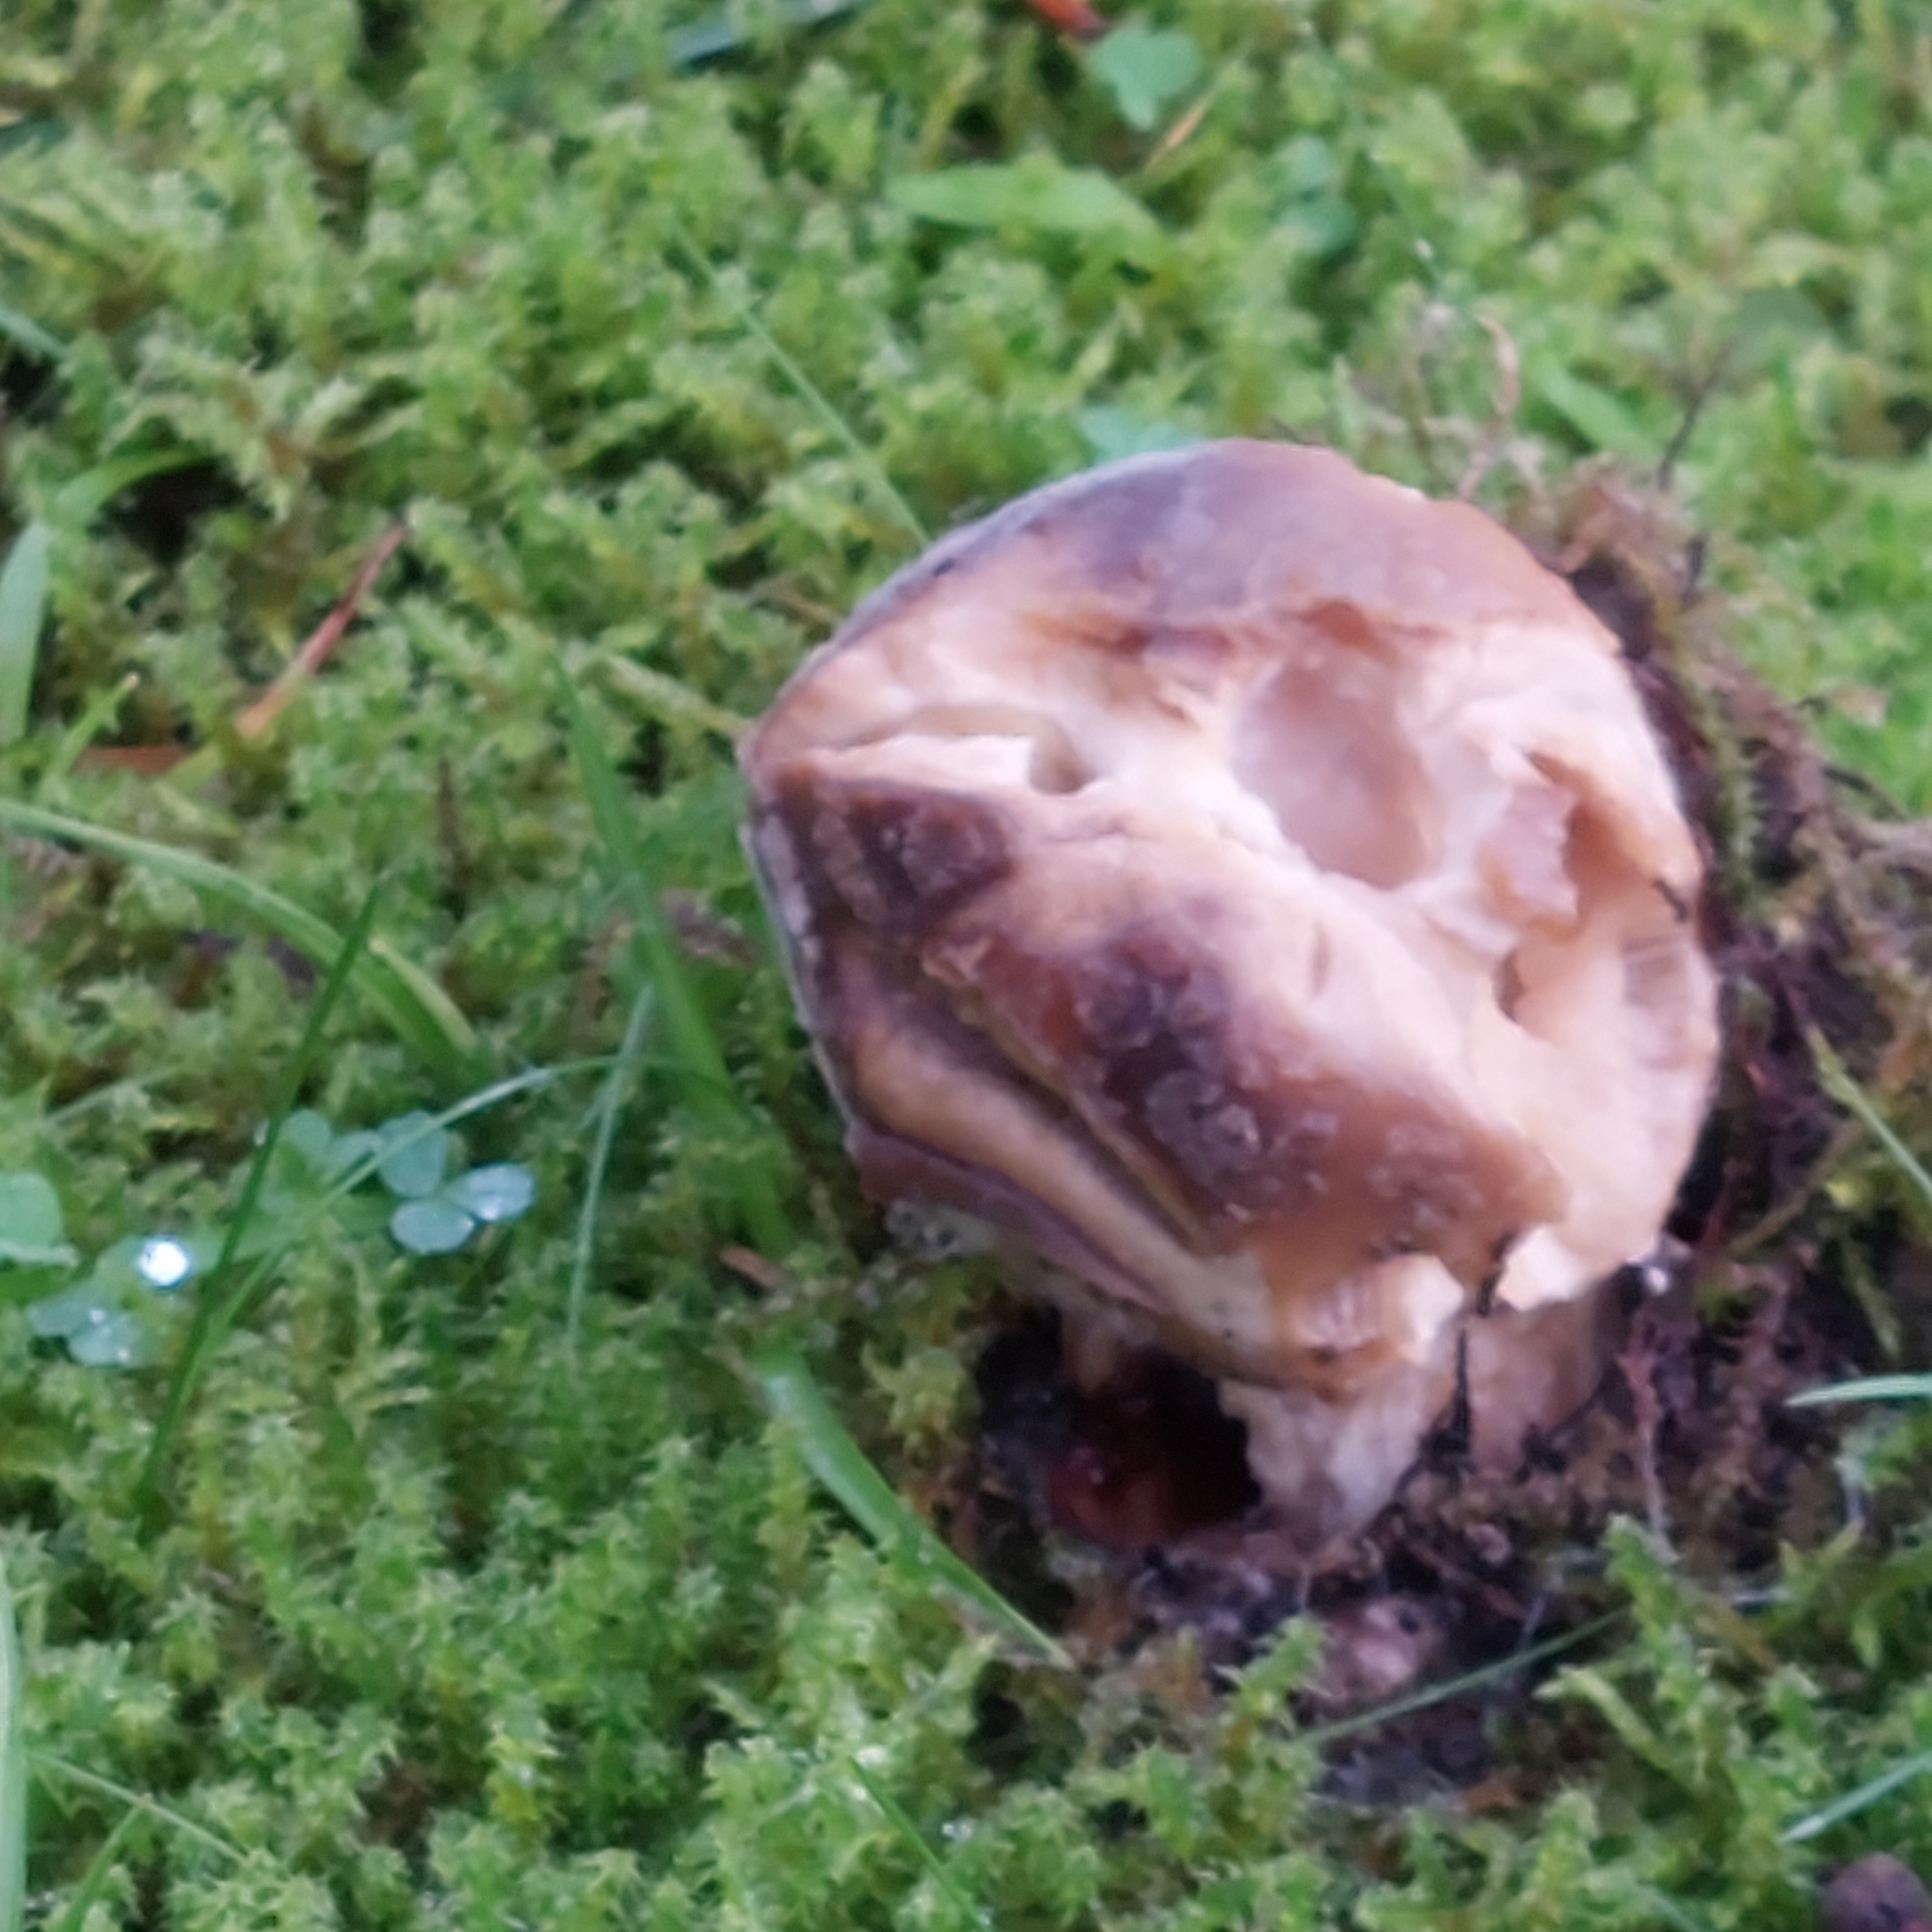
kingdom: Fungi
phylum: Basidiomycota
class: Agaricomycetes
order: Boletales
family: Boletaceae
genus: Boletus
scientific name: Boletus edulis
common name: Cep
